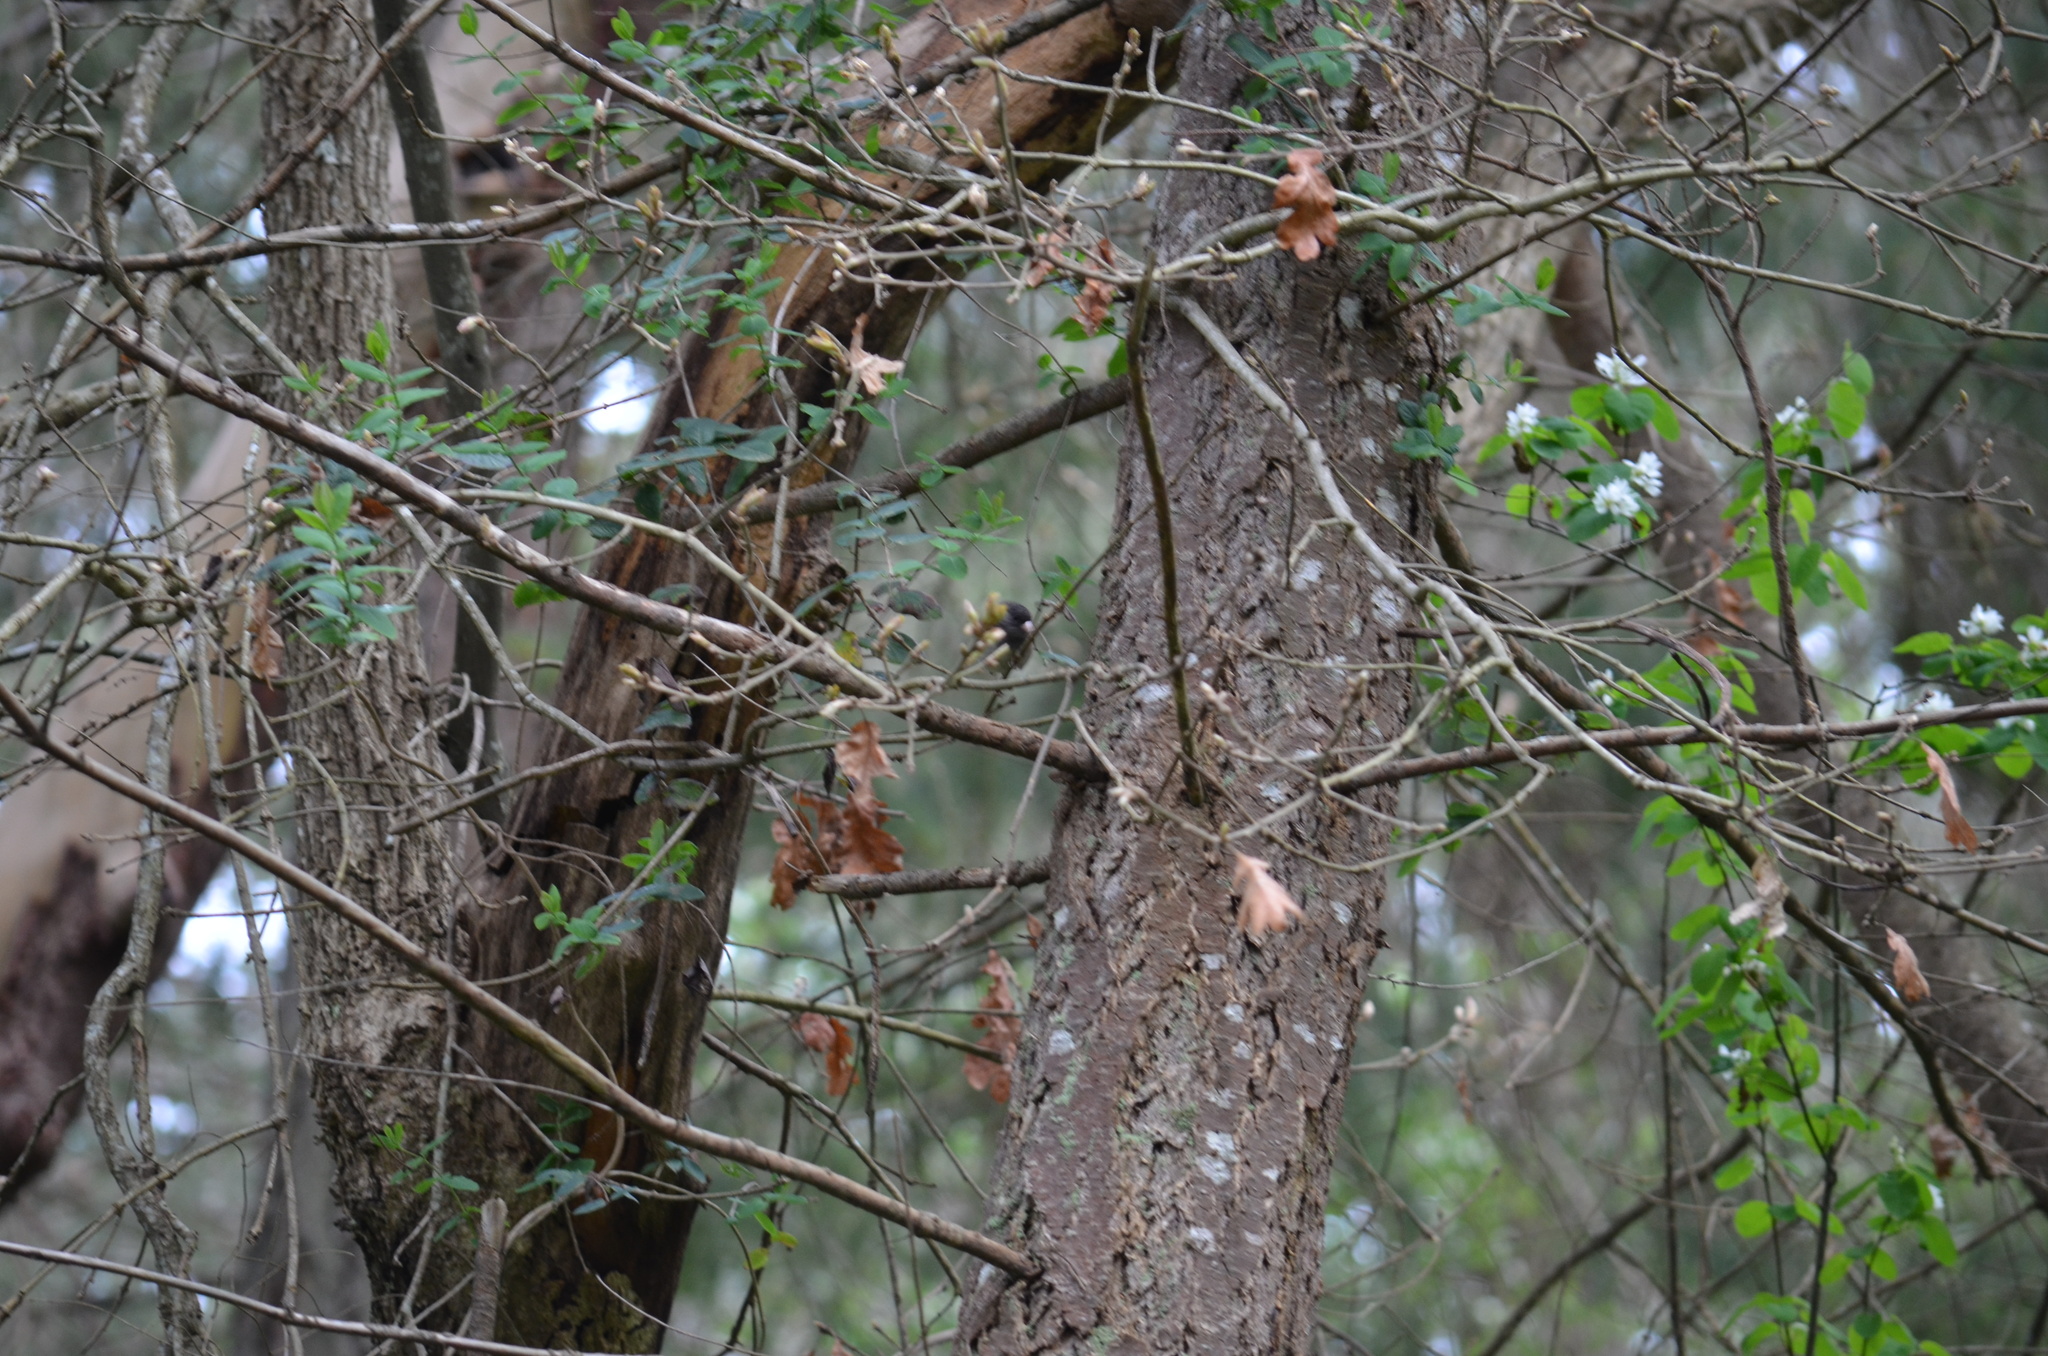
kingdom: Animalia
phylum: Chordata
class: Aves
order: Passeriformes
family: Passerellidae
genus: Junco
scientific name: Junco hyemalis
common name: Dark-eyed junco
